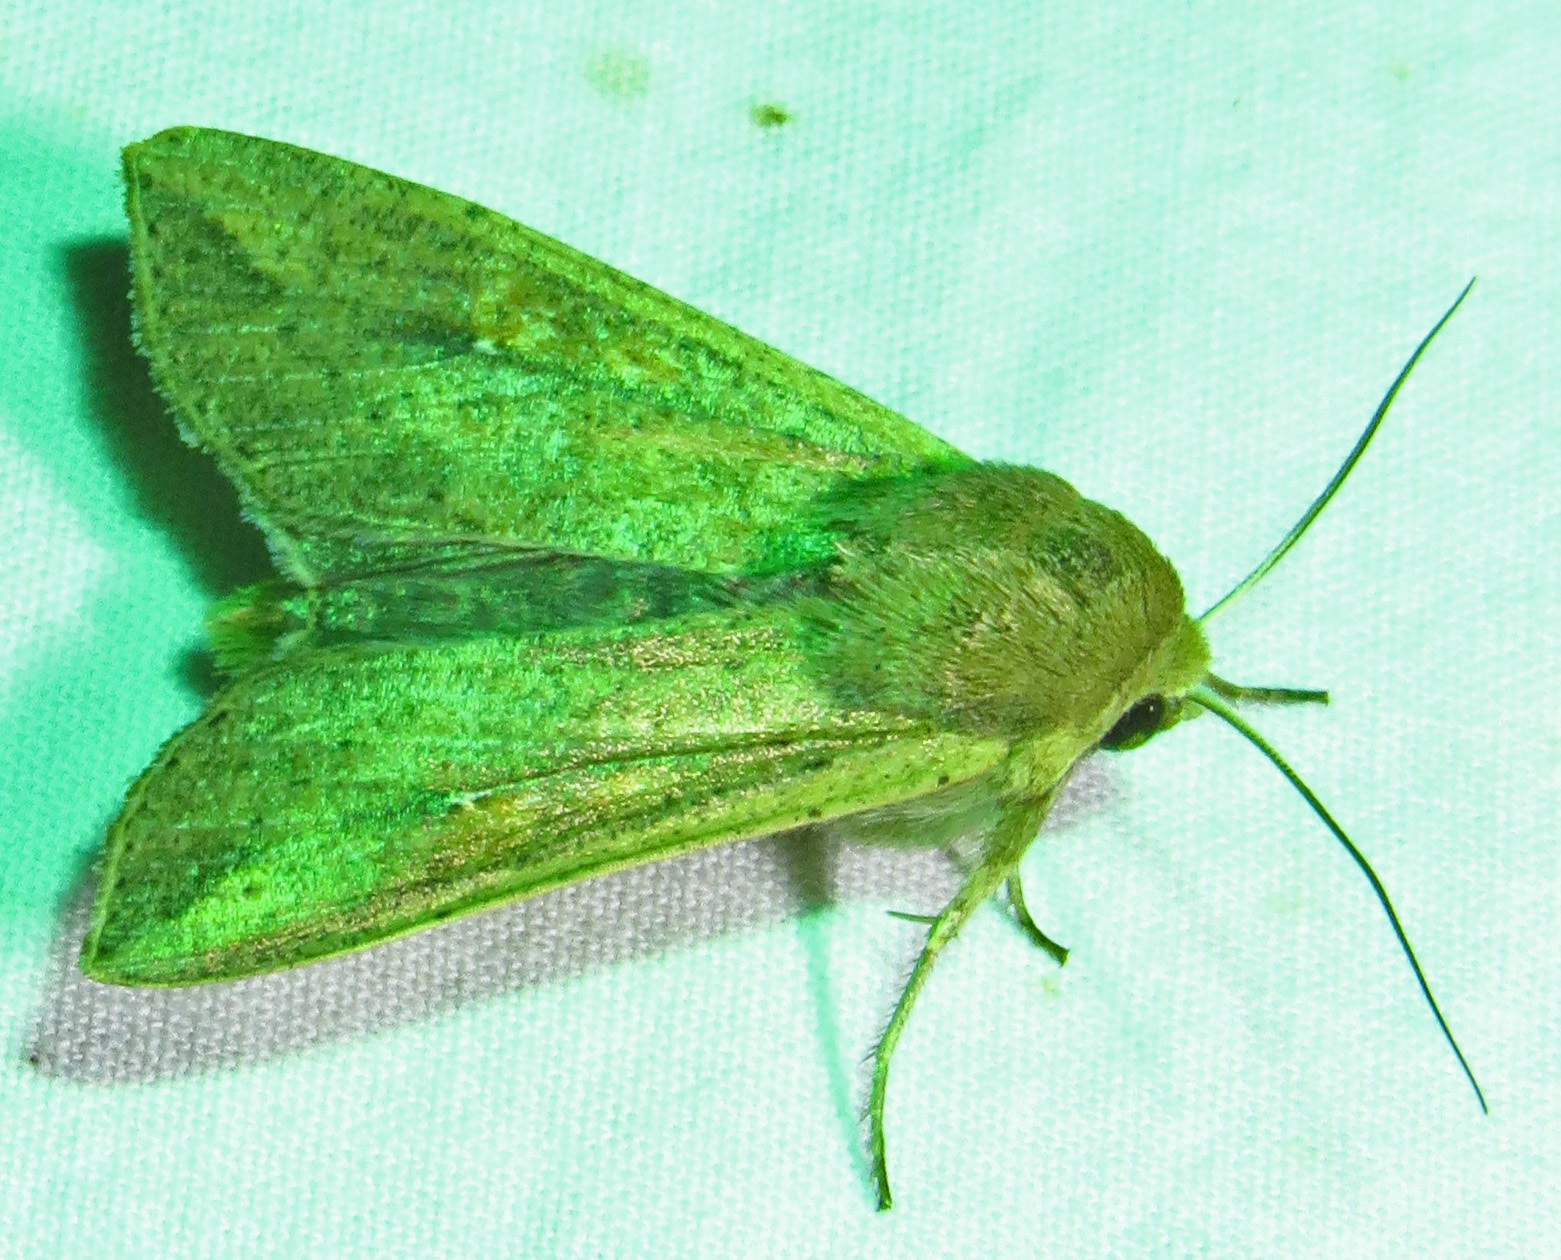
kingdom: Animalia
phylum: Arthropoda
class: Insecta
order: Lepidoptera
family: Noctuidae
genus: Mythimna
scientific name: Mythimna unipuncta
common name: White-speck
